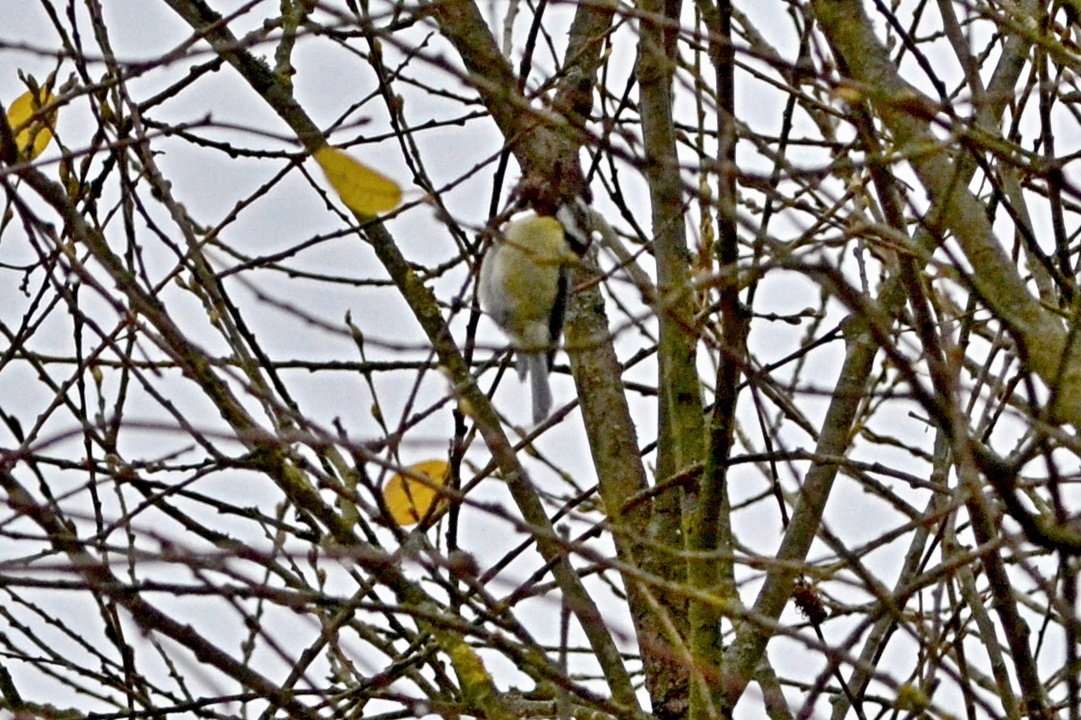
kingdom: Animalia
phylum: Chordata
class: Aves
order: Passeriformes
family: Paridae
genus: Cyanistes
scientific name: Cyanistes caeruleus
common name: Eurasian blue tit
